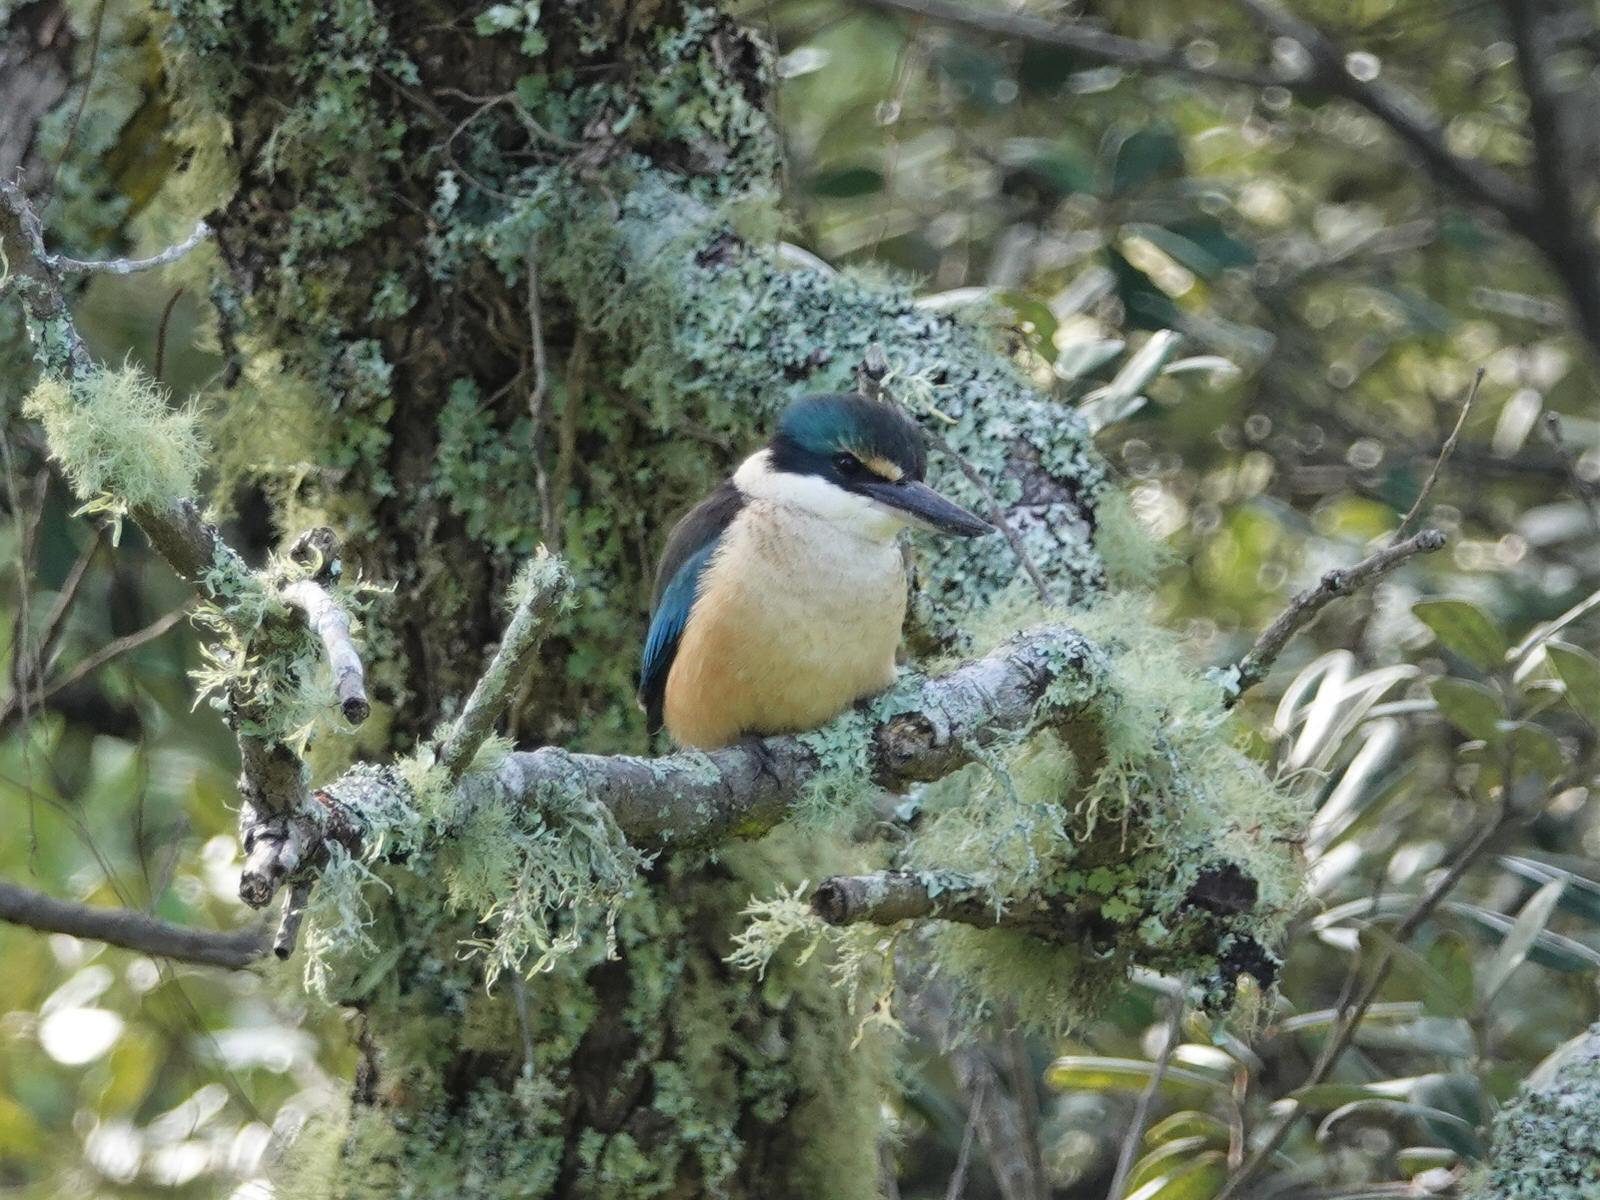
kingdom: Animalia
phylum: Chordata
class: Aves
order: Coraciiformes
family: Alcedinidae
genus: Todiramphus
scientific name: Todiramphus sanctus
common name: Sacred kingfisher
